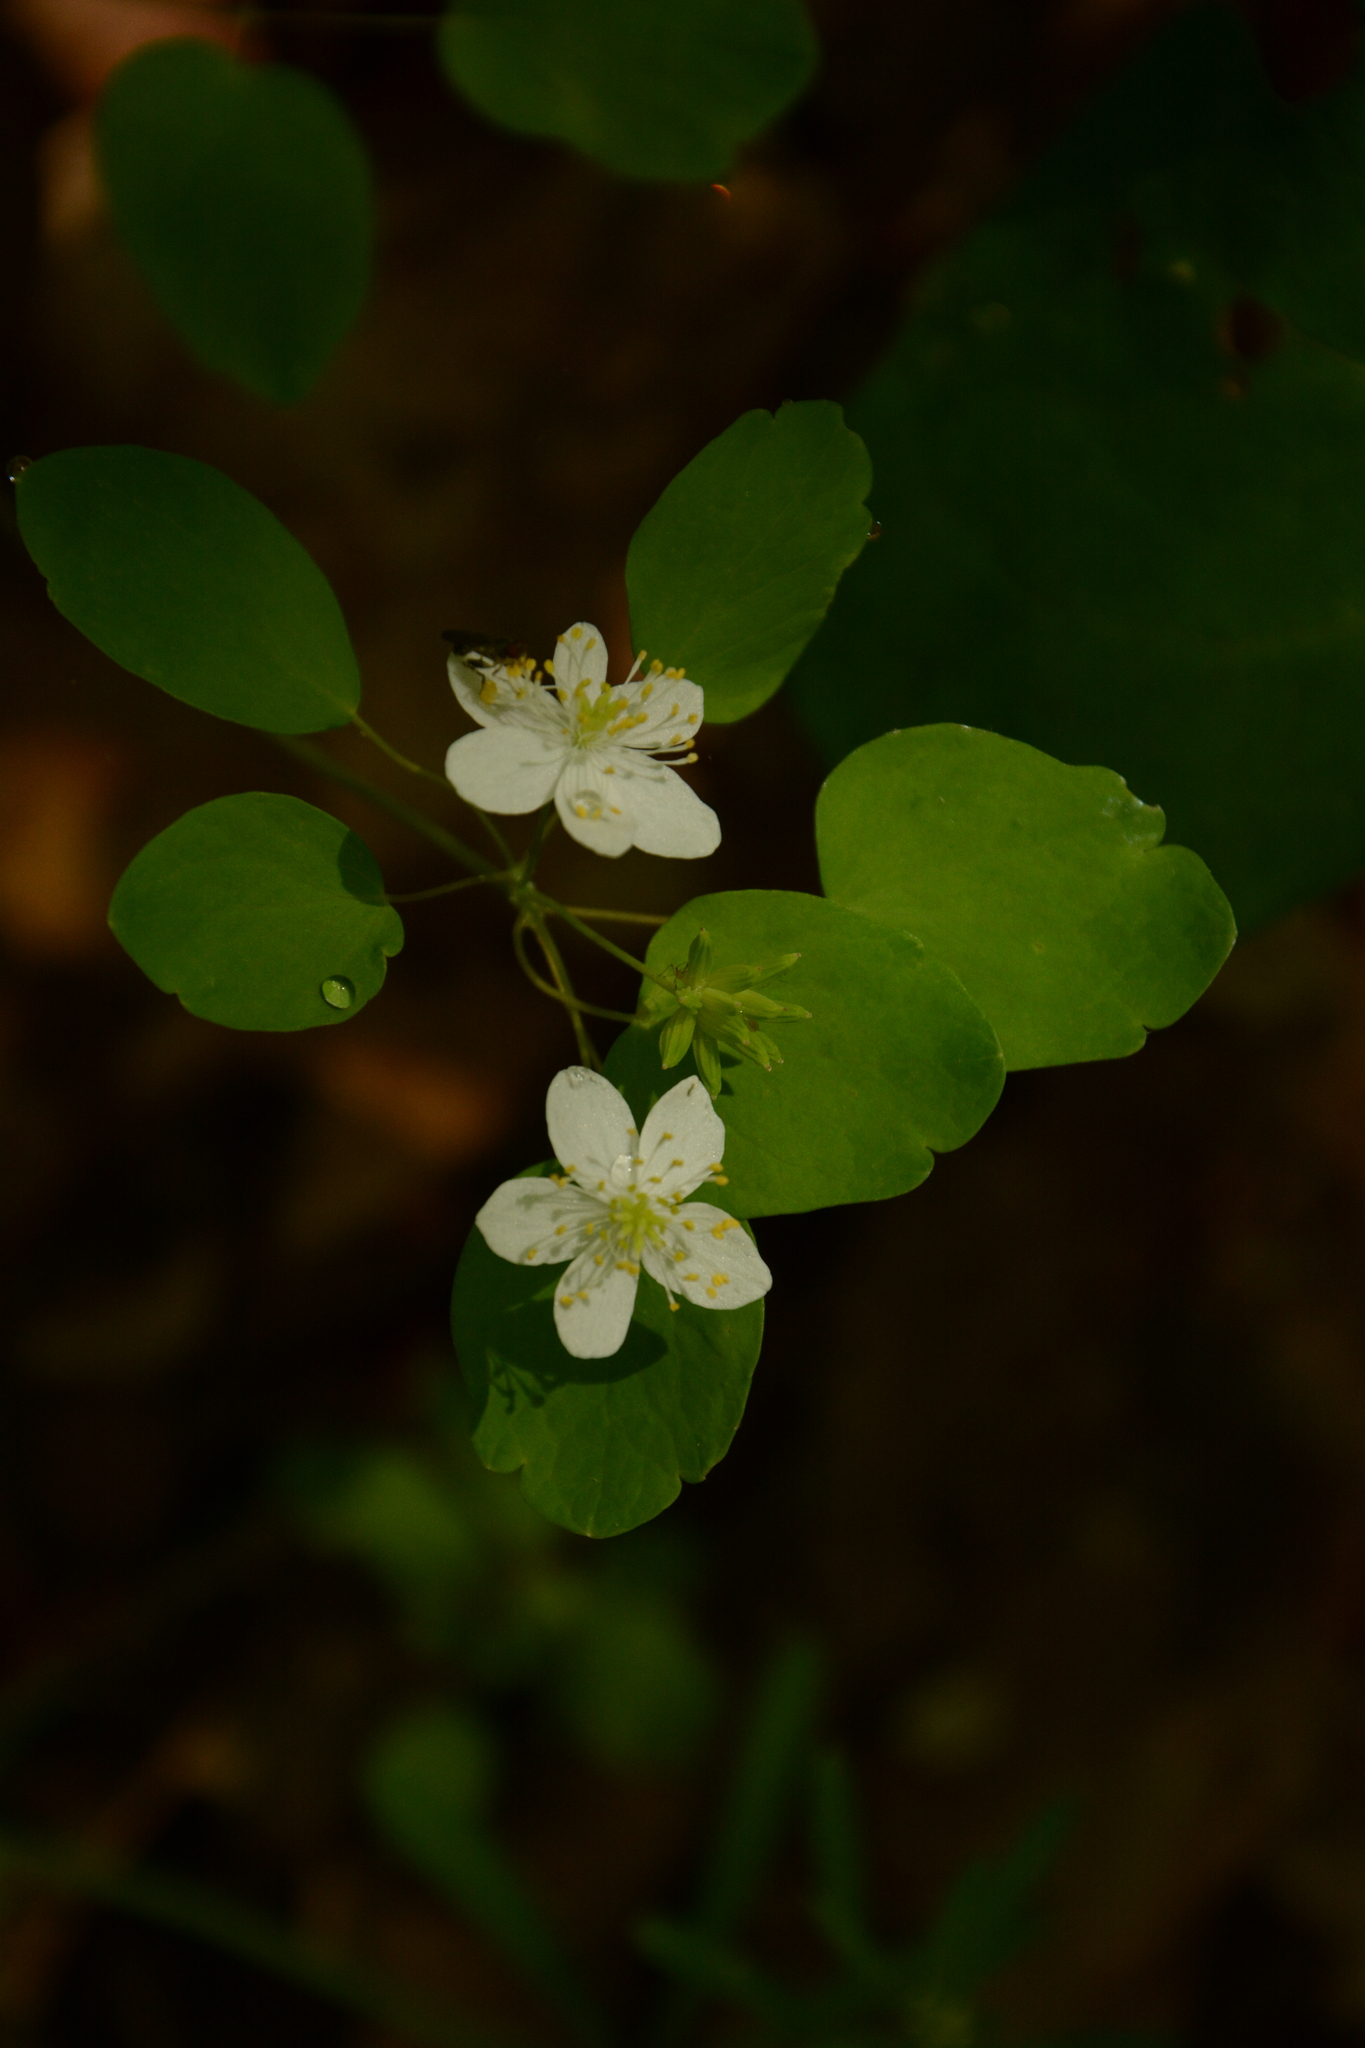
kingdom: Plantae
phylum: Tracheophyta
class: Magnoliopsida
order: Ranunculales
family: Ranunculaceae
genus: Thalictrum
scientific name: Thalictrum thalictroides
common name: Rue-anemone
